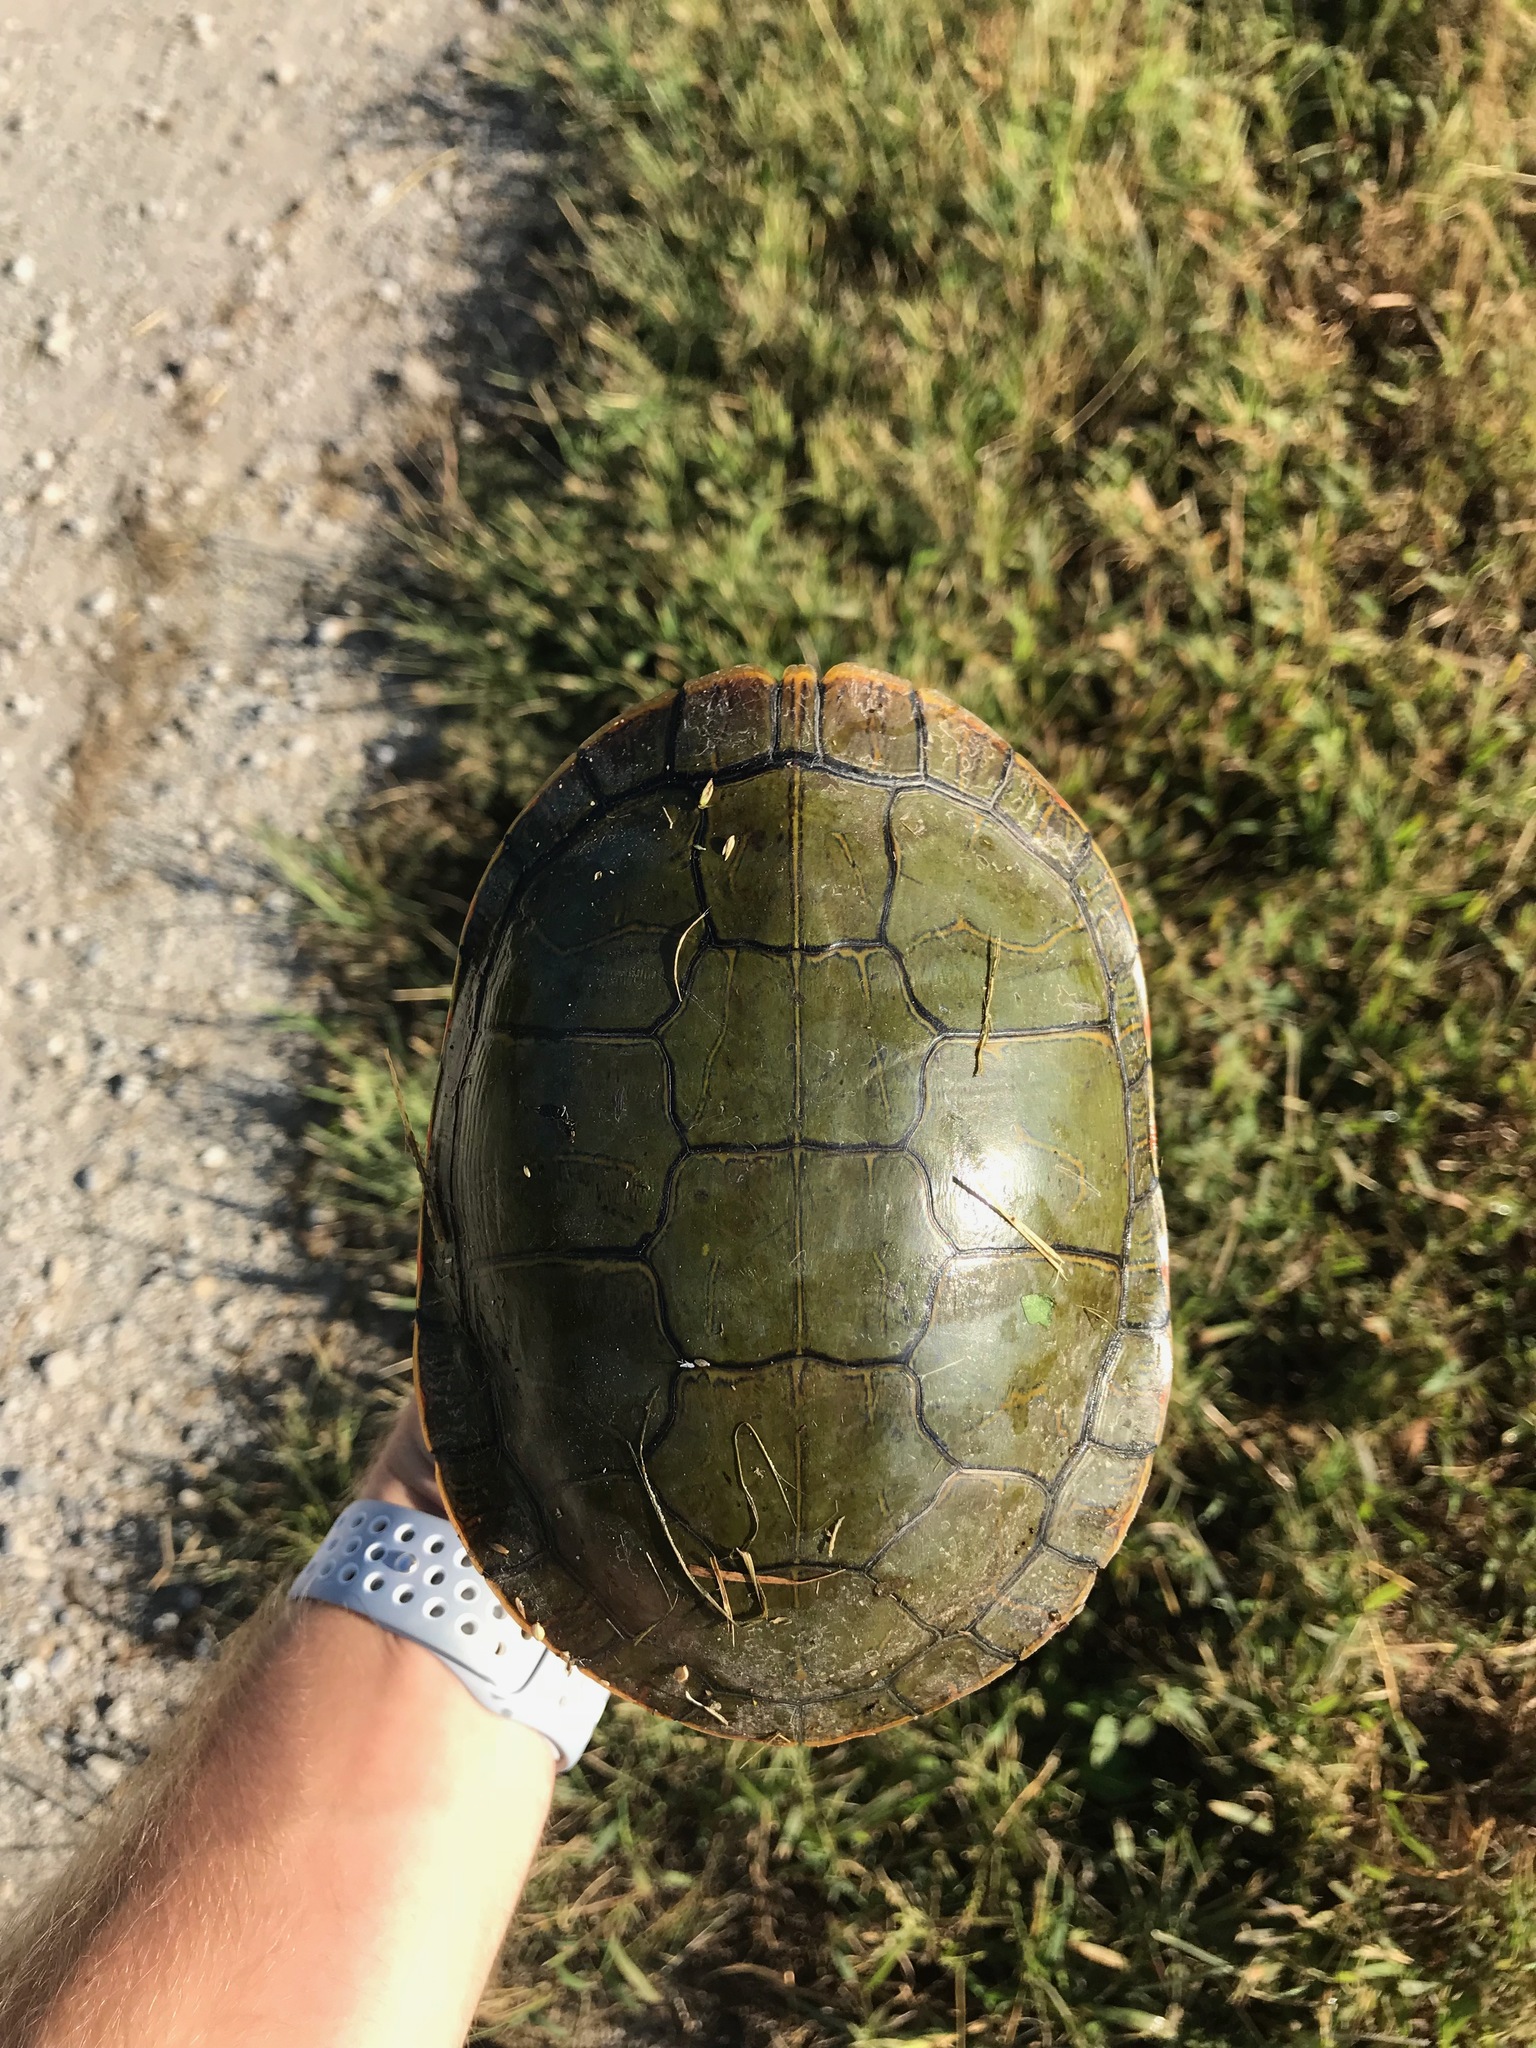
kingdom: Animalia
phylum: Chordata
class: Testudines
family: Emydidae
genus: Chrysemys
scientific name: Chrysemys picta
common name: Painted turtle
